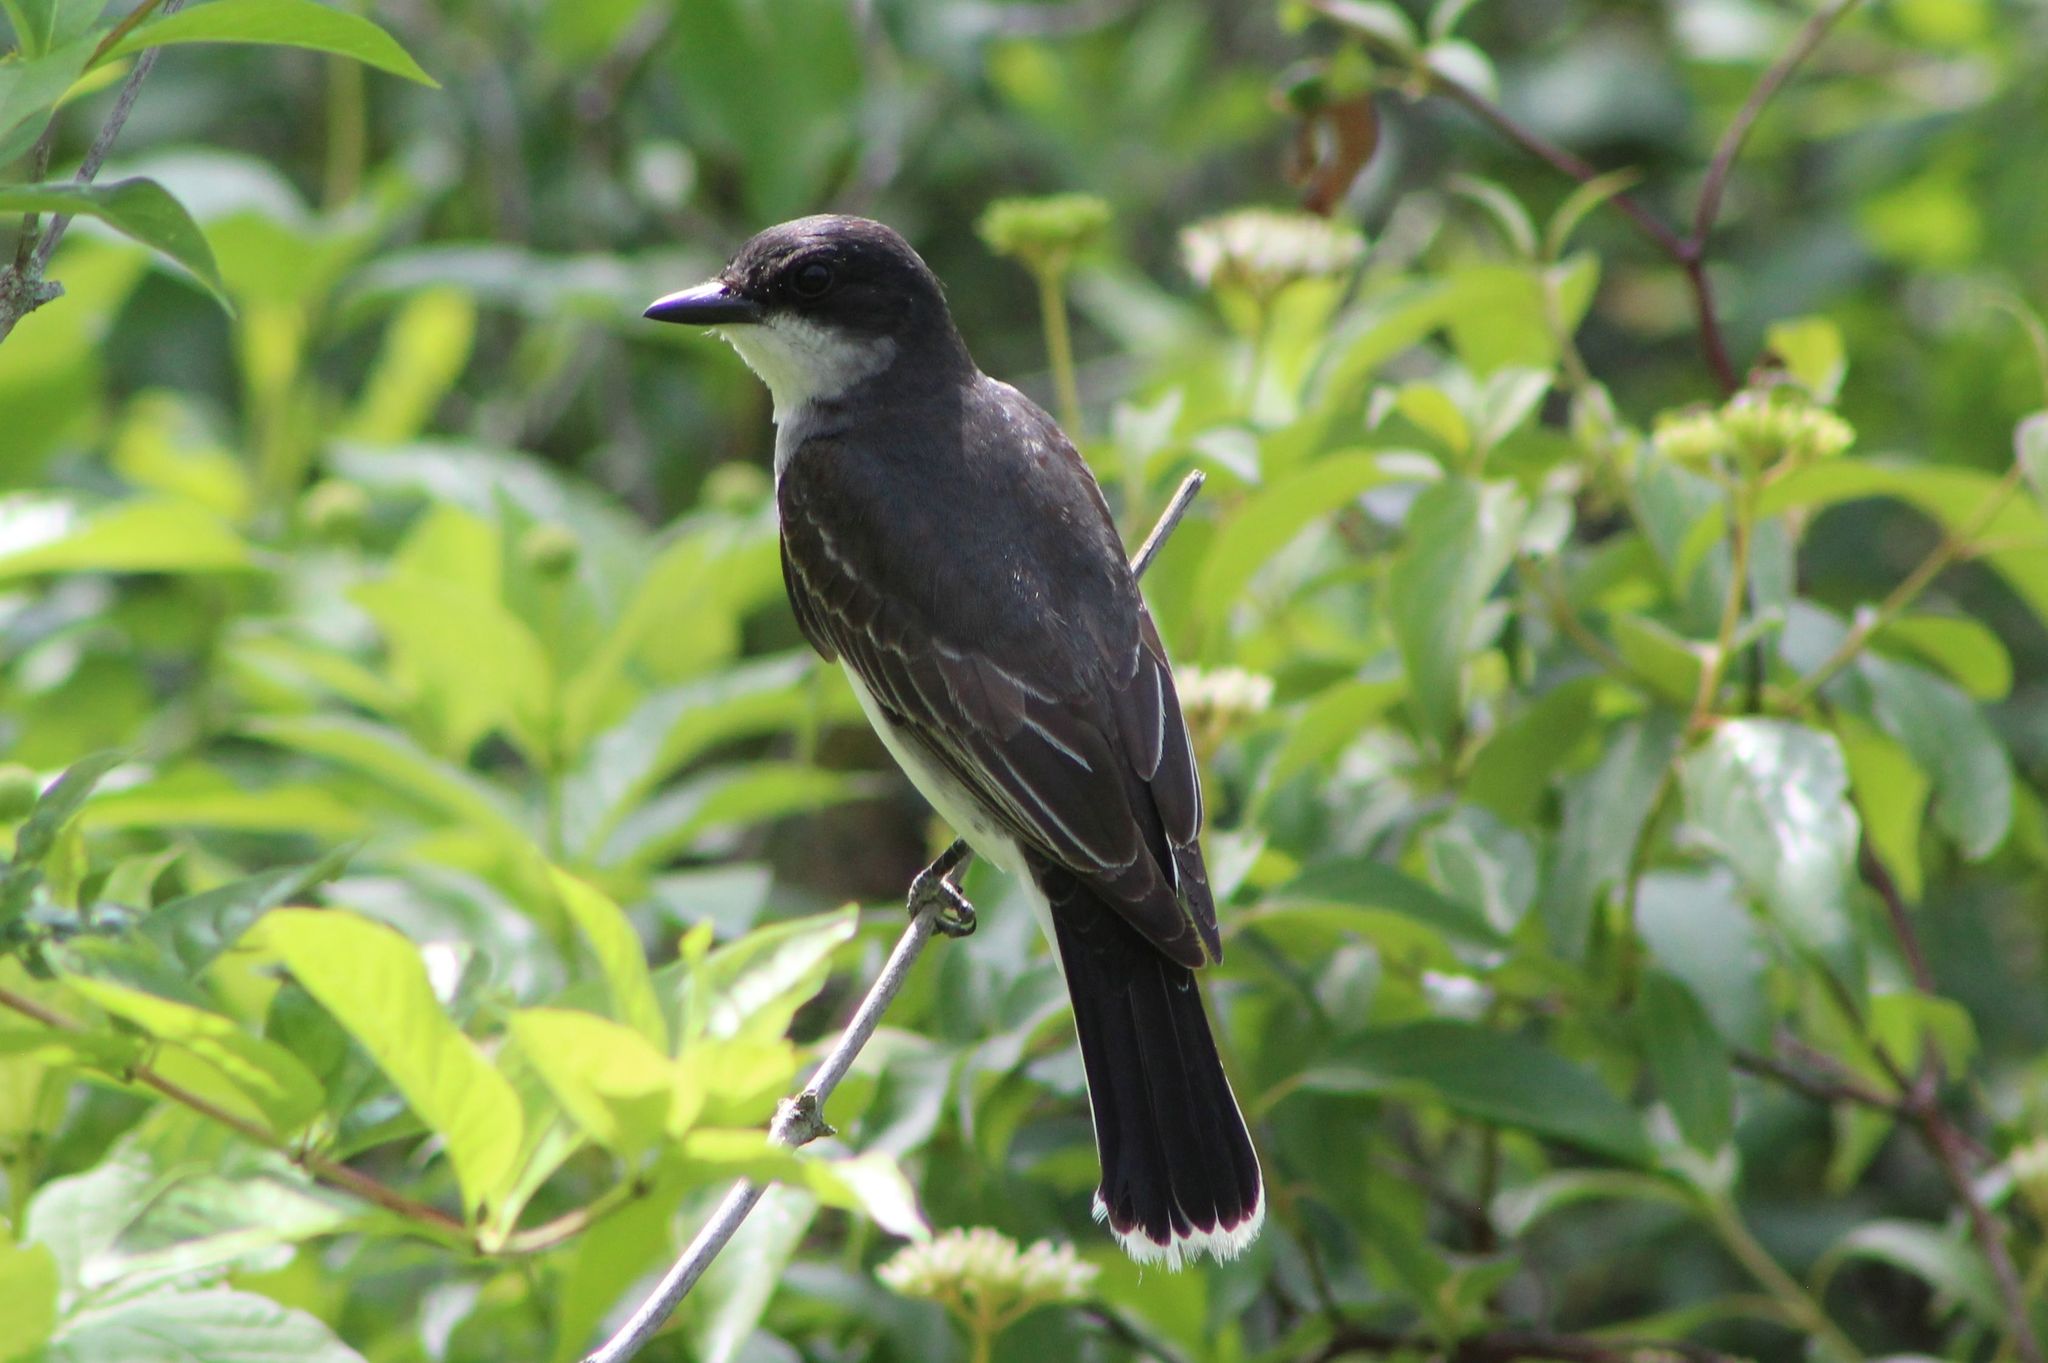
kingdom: Animalia
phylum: Chordata
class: Aves
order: Passeriformes
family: Tyrannidae
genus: Tyrannus
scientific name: Tyrannus tyrannus
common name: Eastern kingbird
